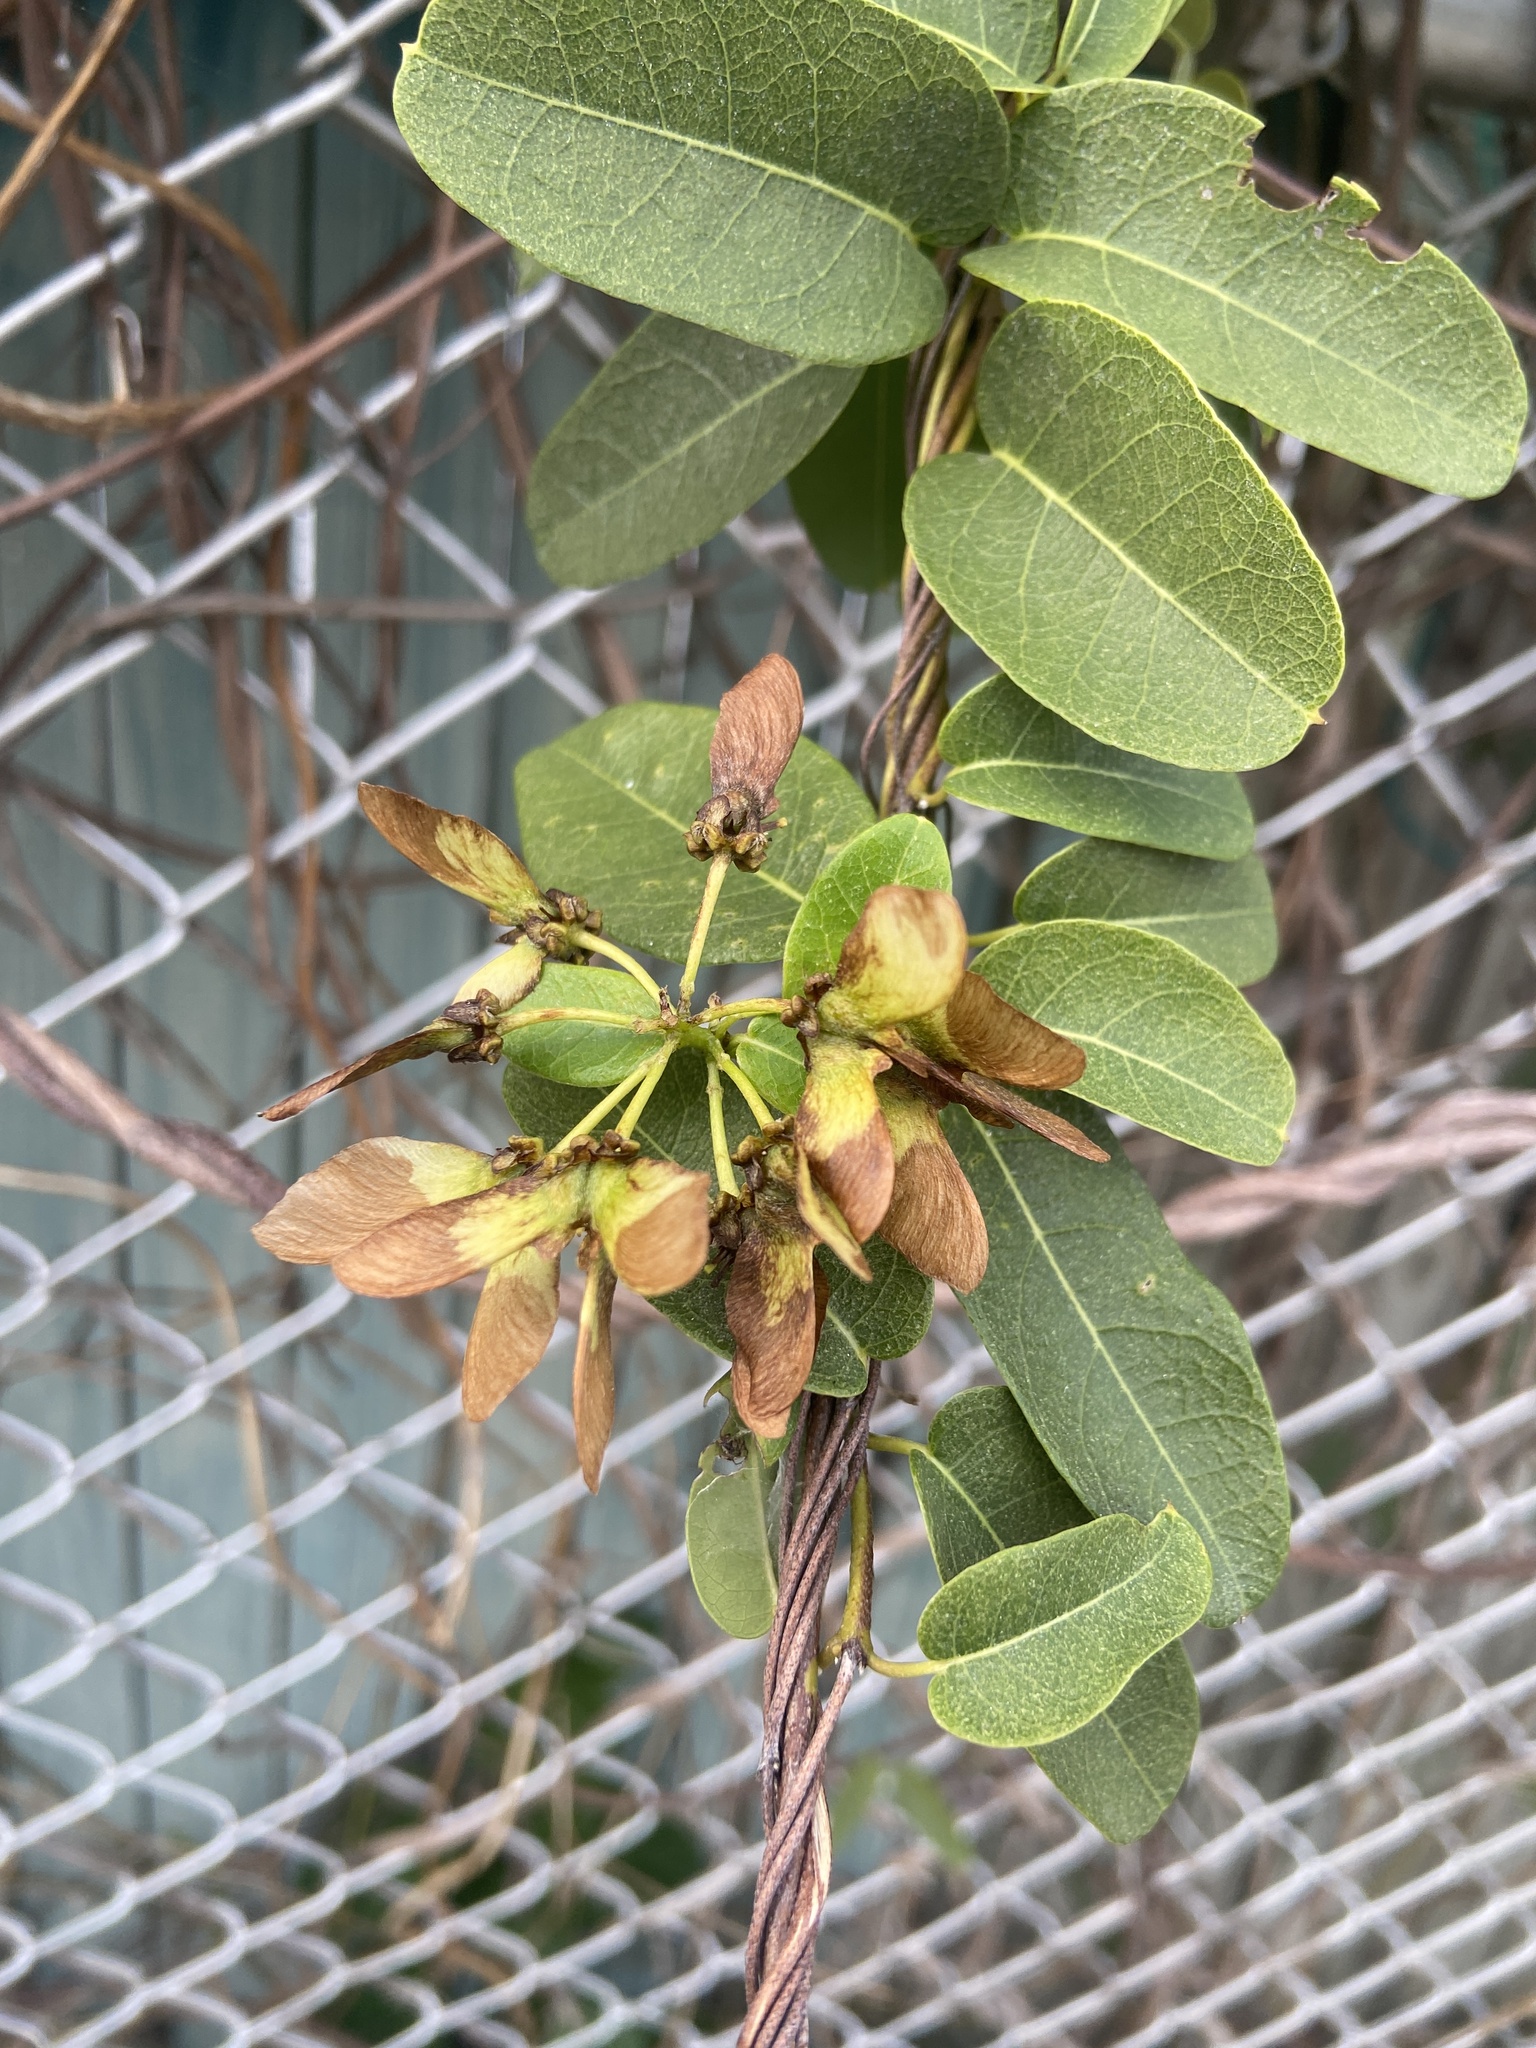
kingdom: Plantae
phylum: Tracheophyta
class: Magnoliopsida
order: Malpighiales
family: Malpighiaceae
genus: Stigmaphyllon
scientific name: Stigmaphyllon emarginatum
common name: Monarch amazonvine
